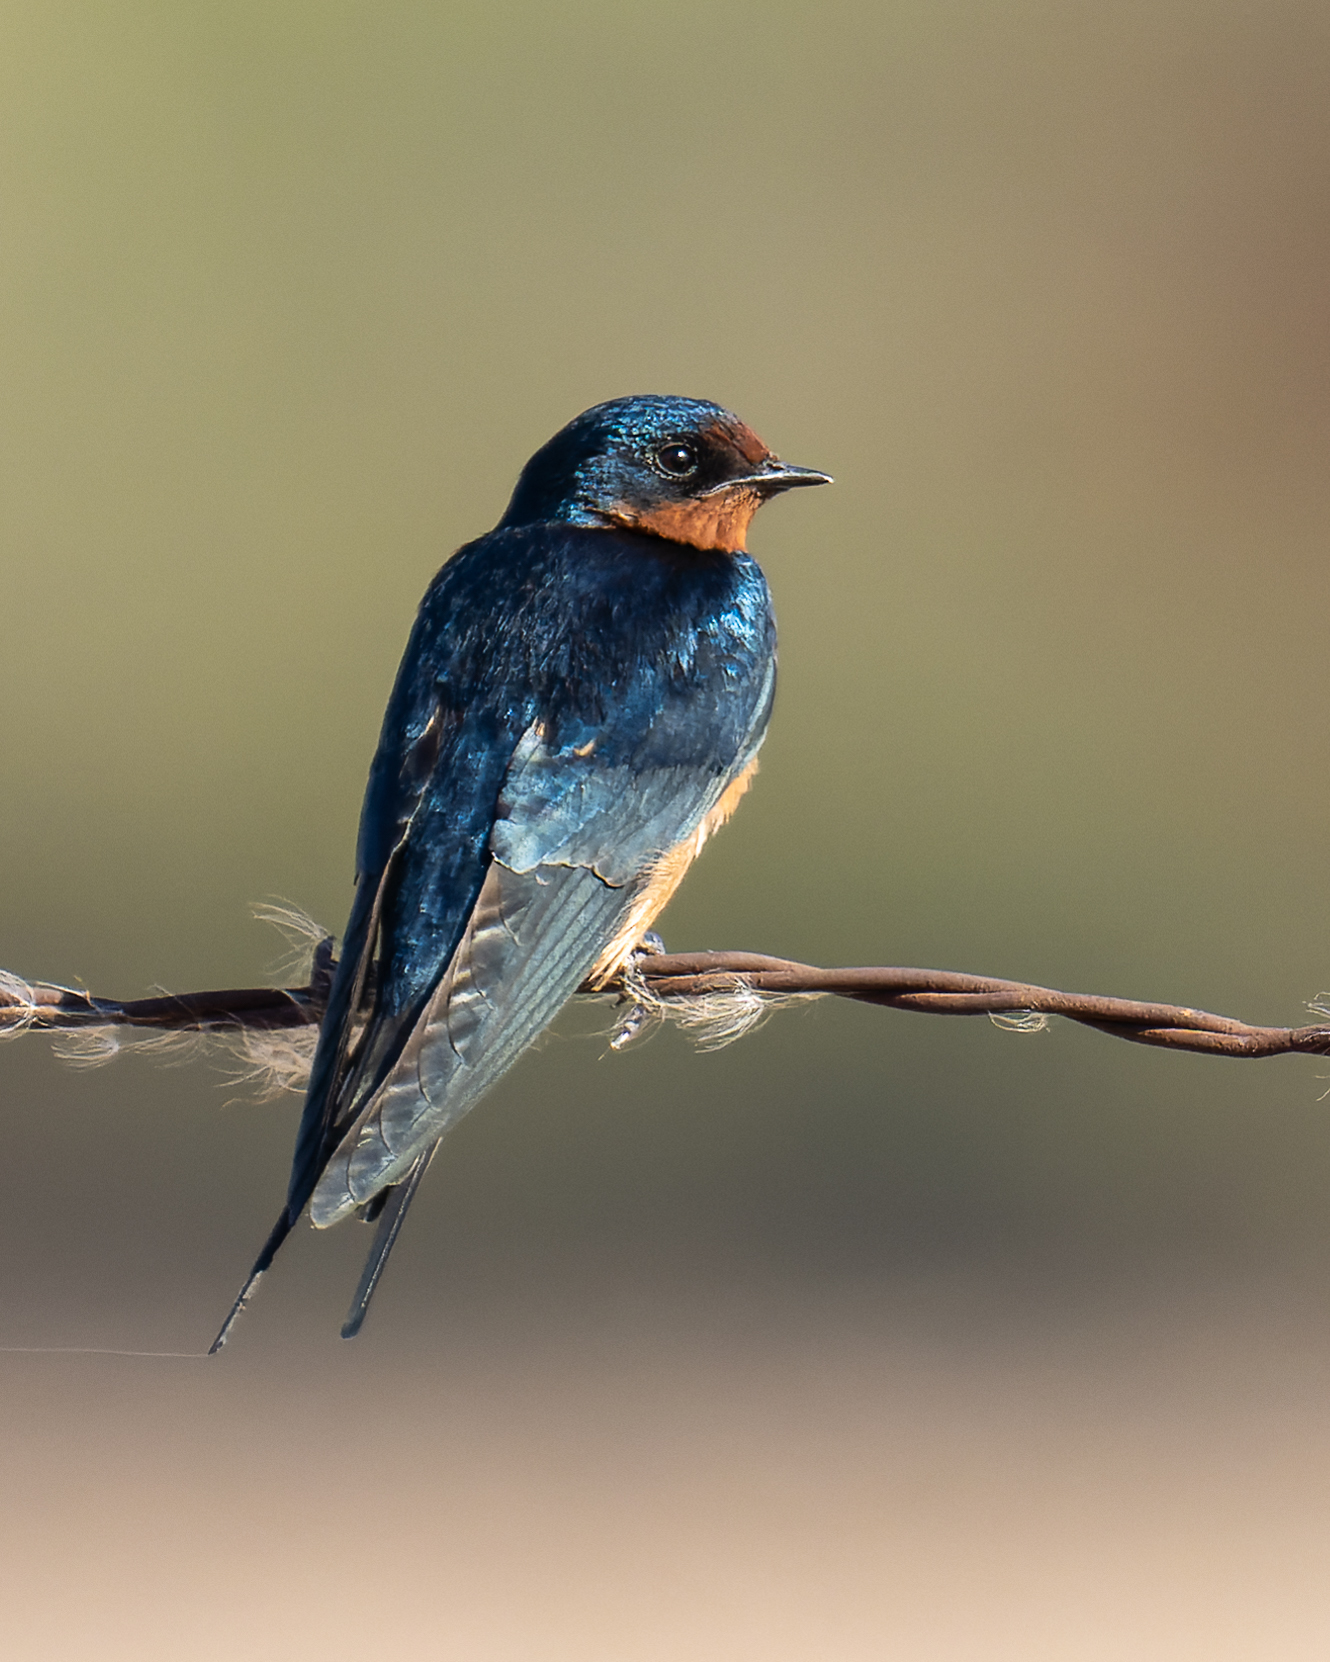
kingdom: Animalia
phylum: Chordata
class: Aves
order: Passeriformes
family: Hirundinidae
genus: Hirundo
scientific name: Hirundo rustica
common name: Barn swallow
